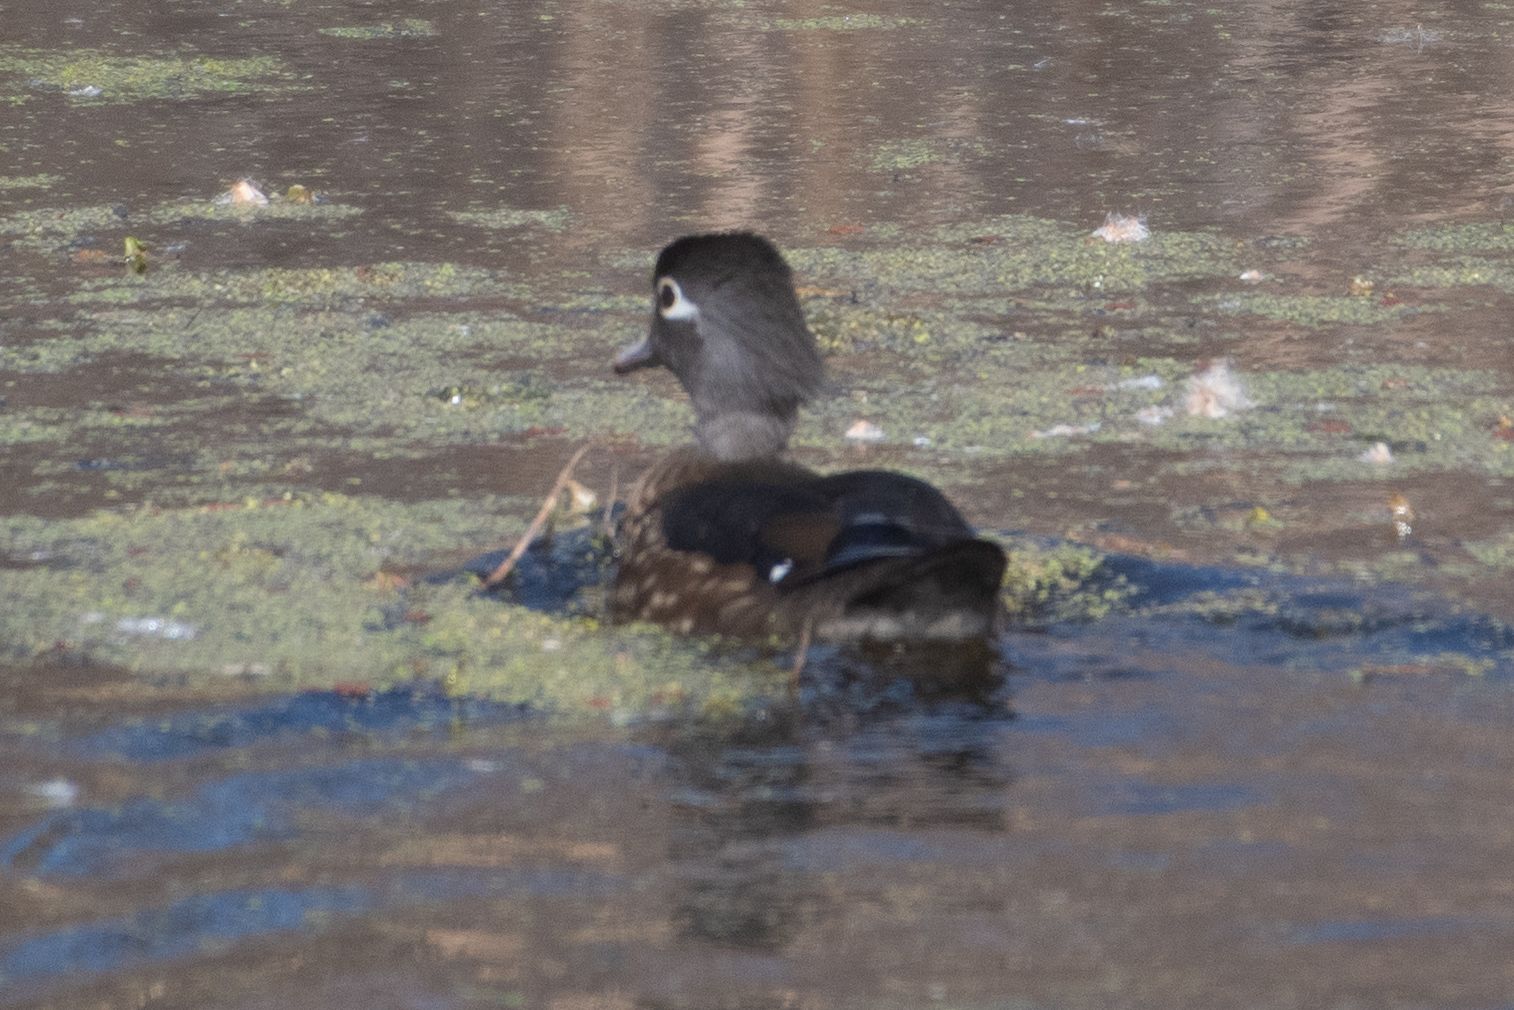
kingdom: Animalia
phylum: Chordata
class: Aves
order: Anseriformes
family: Anatidae
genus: Aix
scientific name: Aix sponsa
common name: Wood duck
